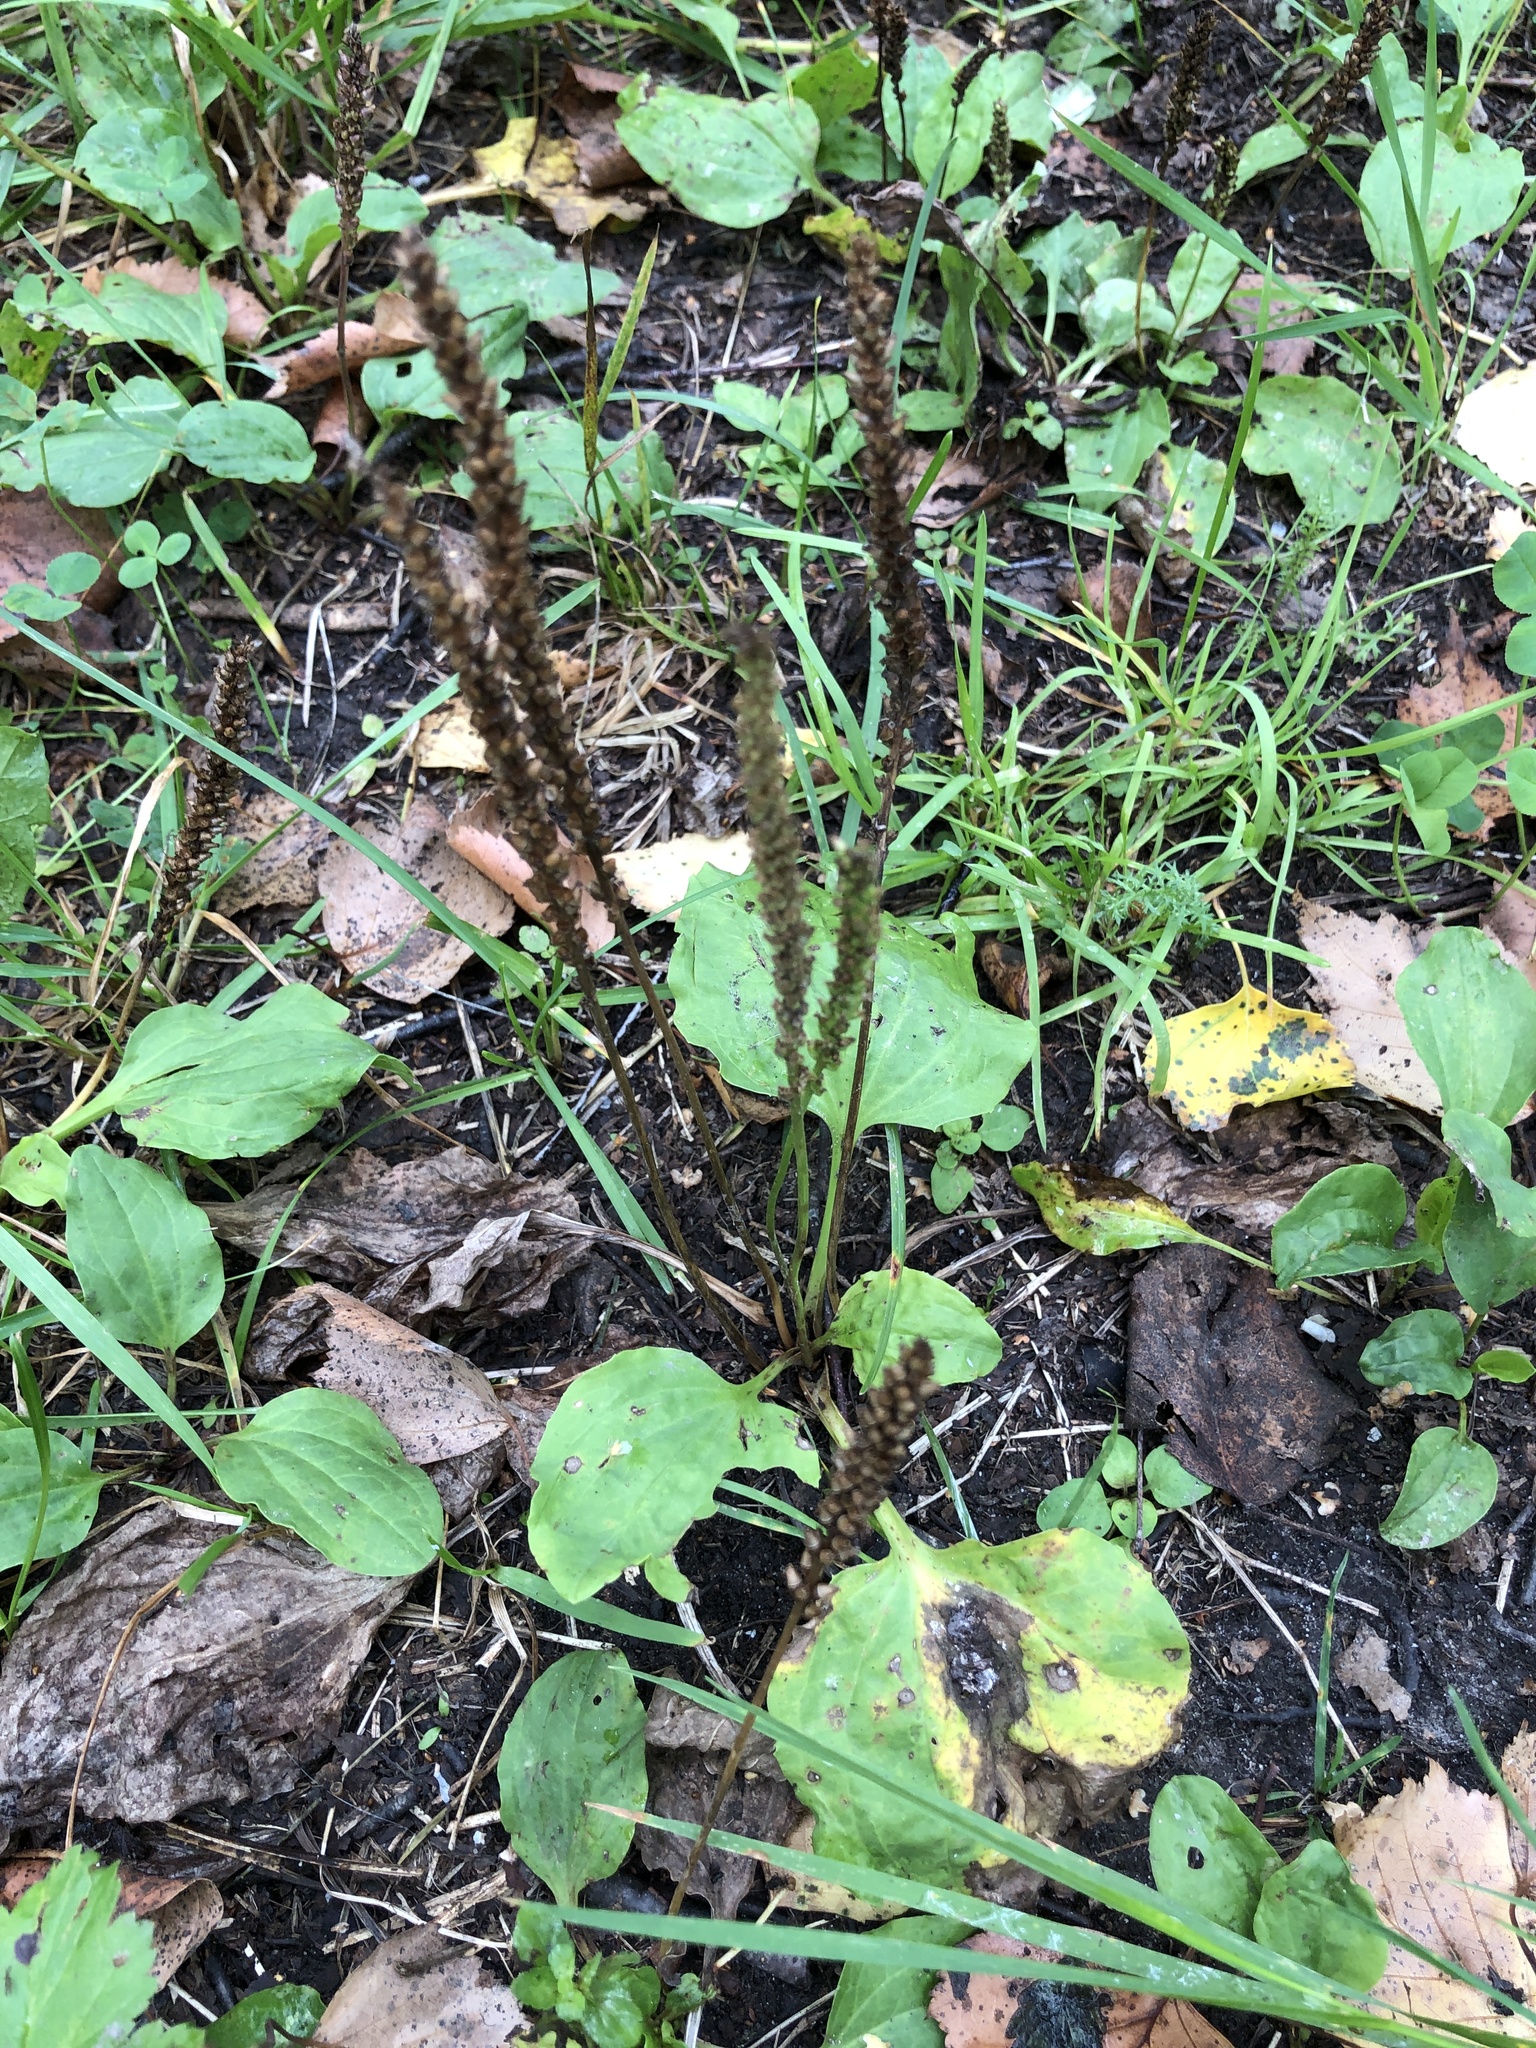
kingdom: Plantae
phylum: Tracheophyta
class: Magnoliopsida
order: Lamiales
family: Plantaginaceae
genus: Plantago
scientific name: Plantago major
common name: Common plantain
